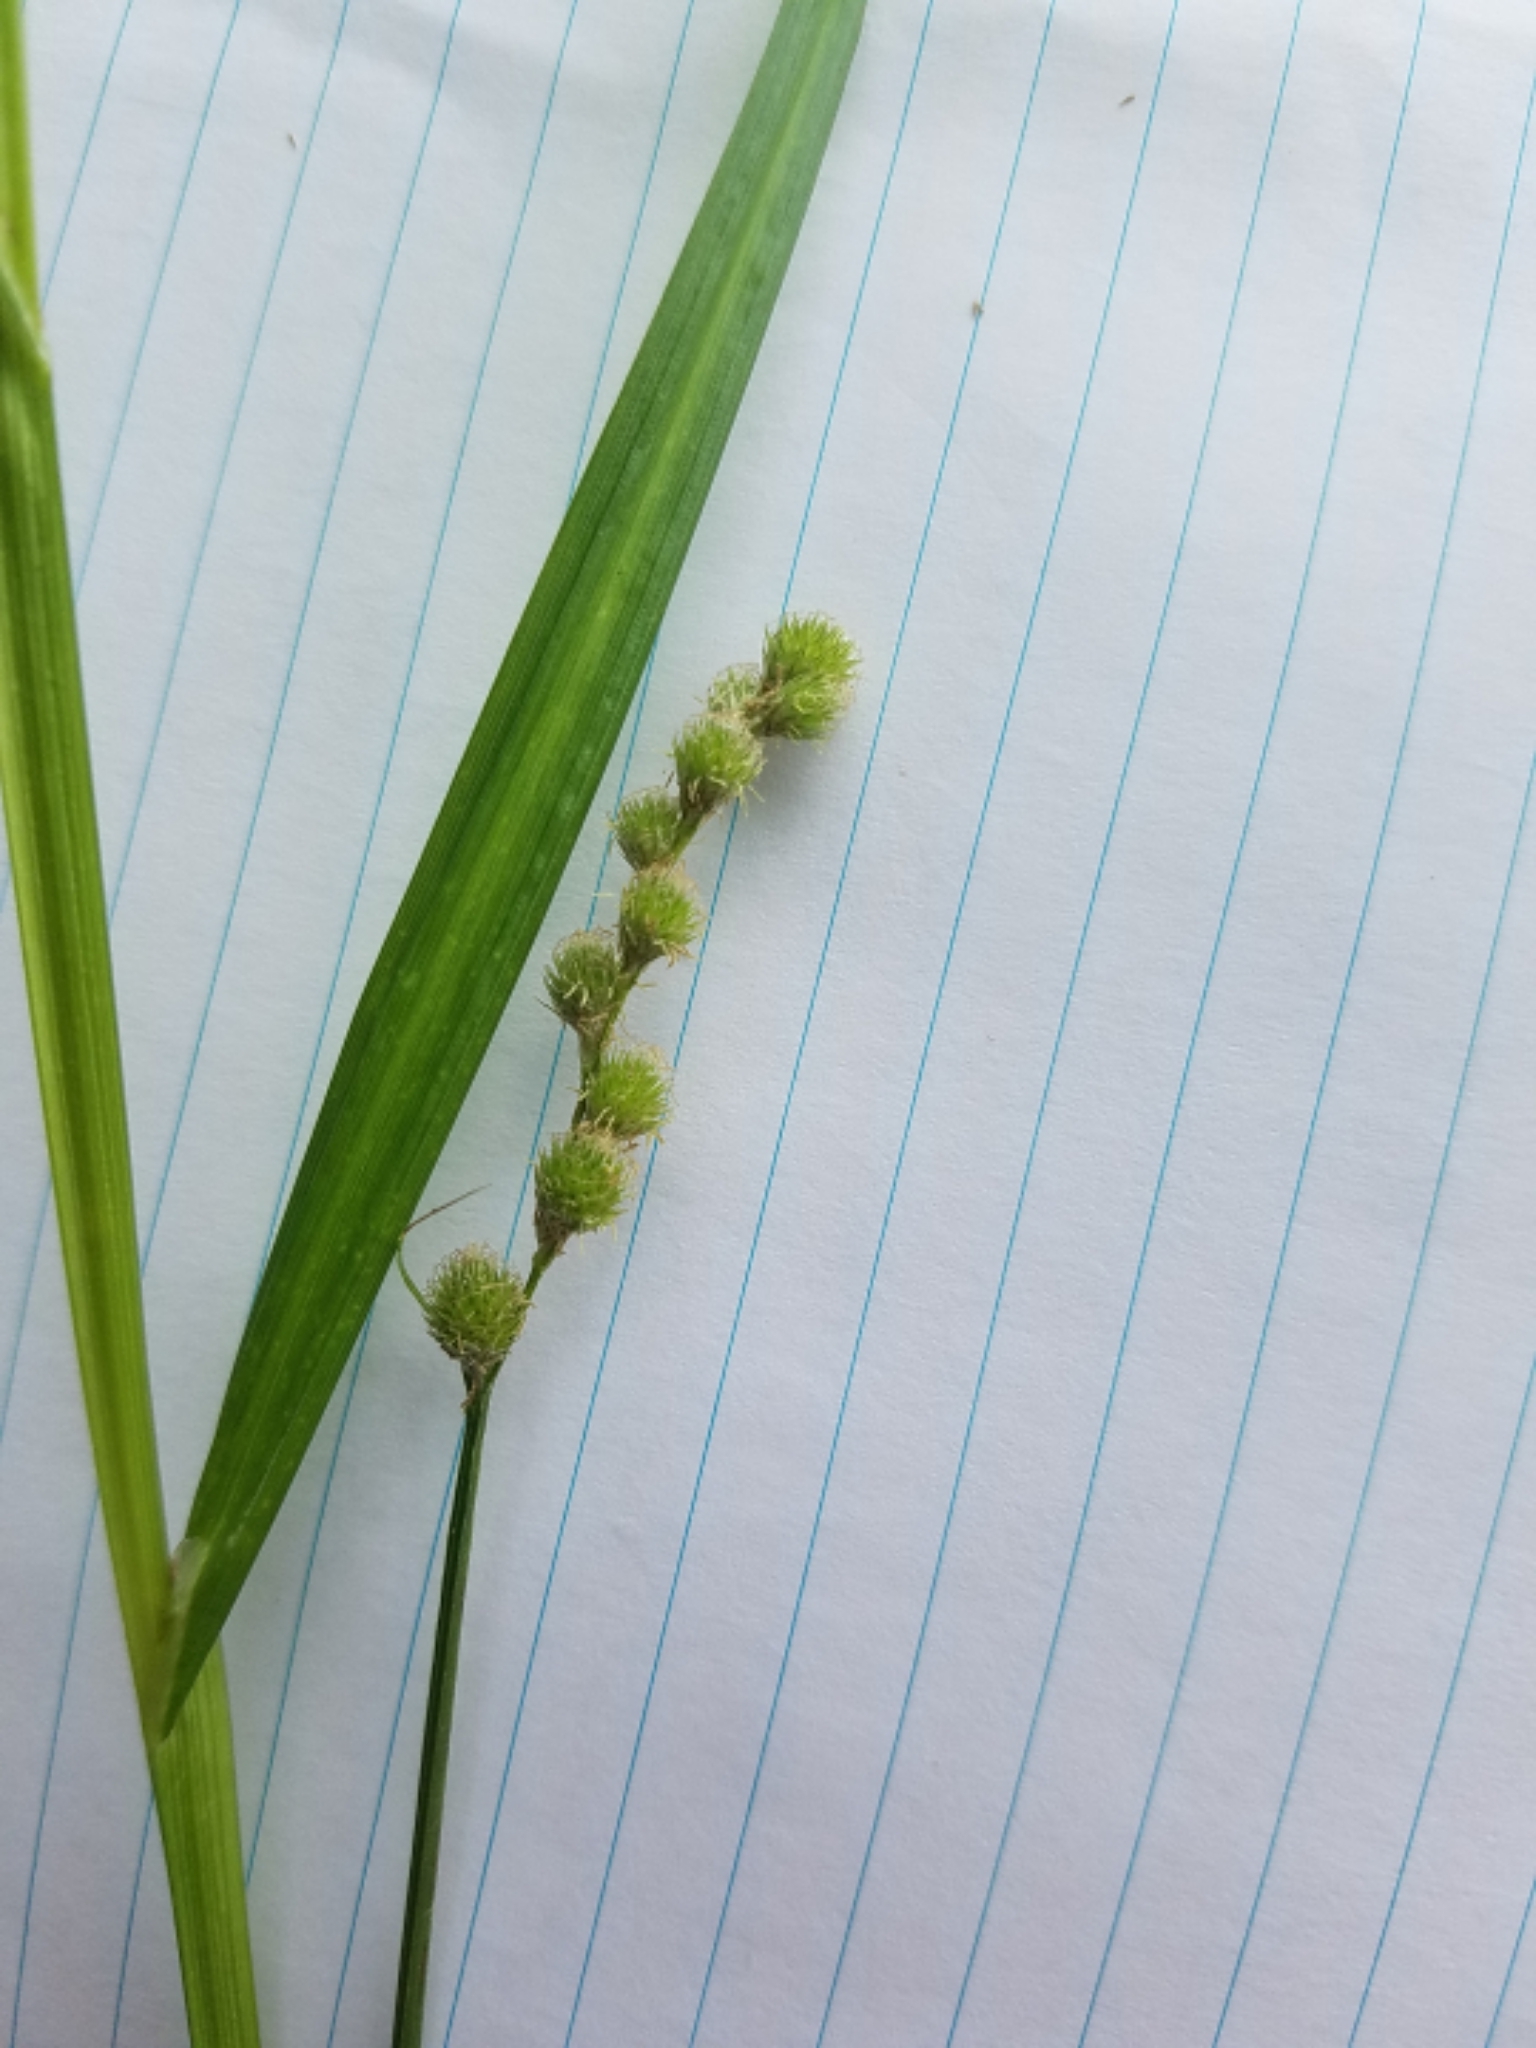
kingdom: Plantae
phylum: Tracheophyta
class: Liliopsida
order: Poales
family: Cyperaceae
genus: Carex
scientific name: Carex cristatella
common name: Crested oval sedge
